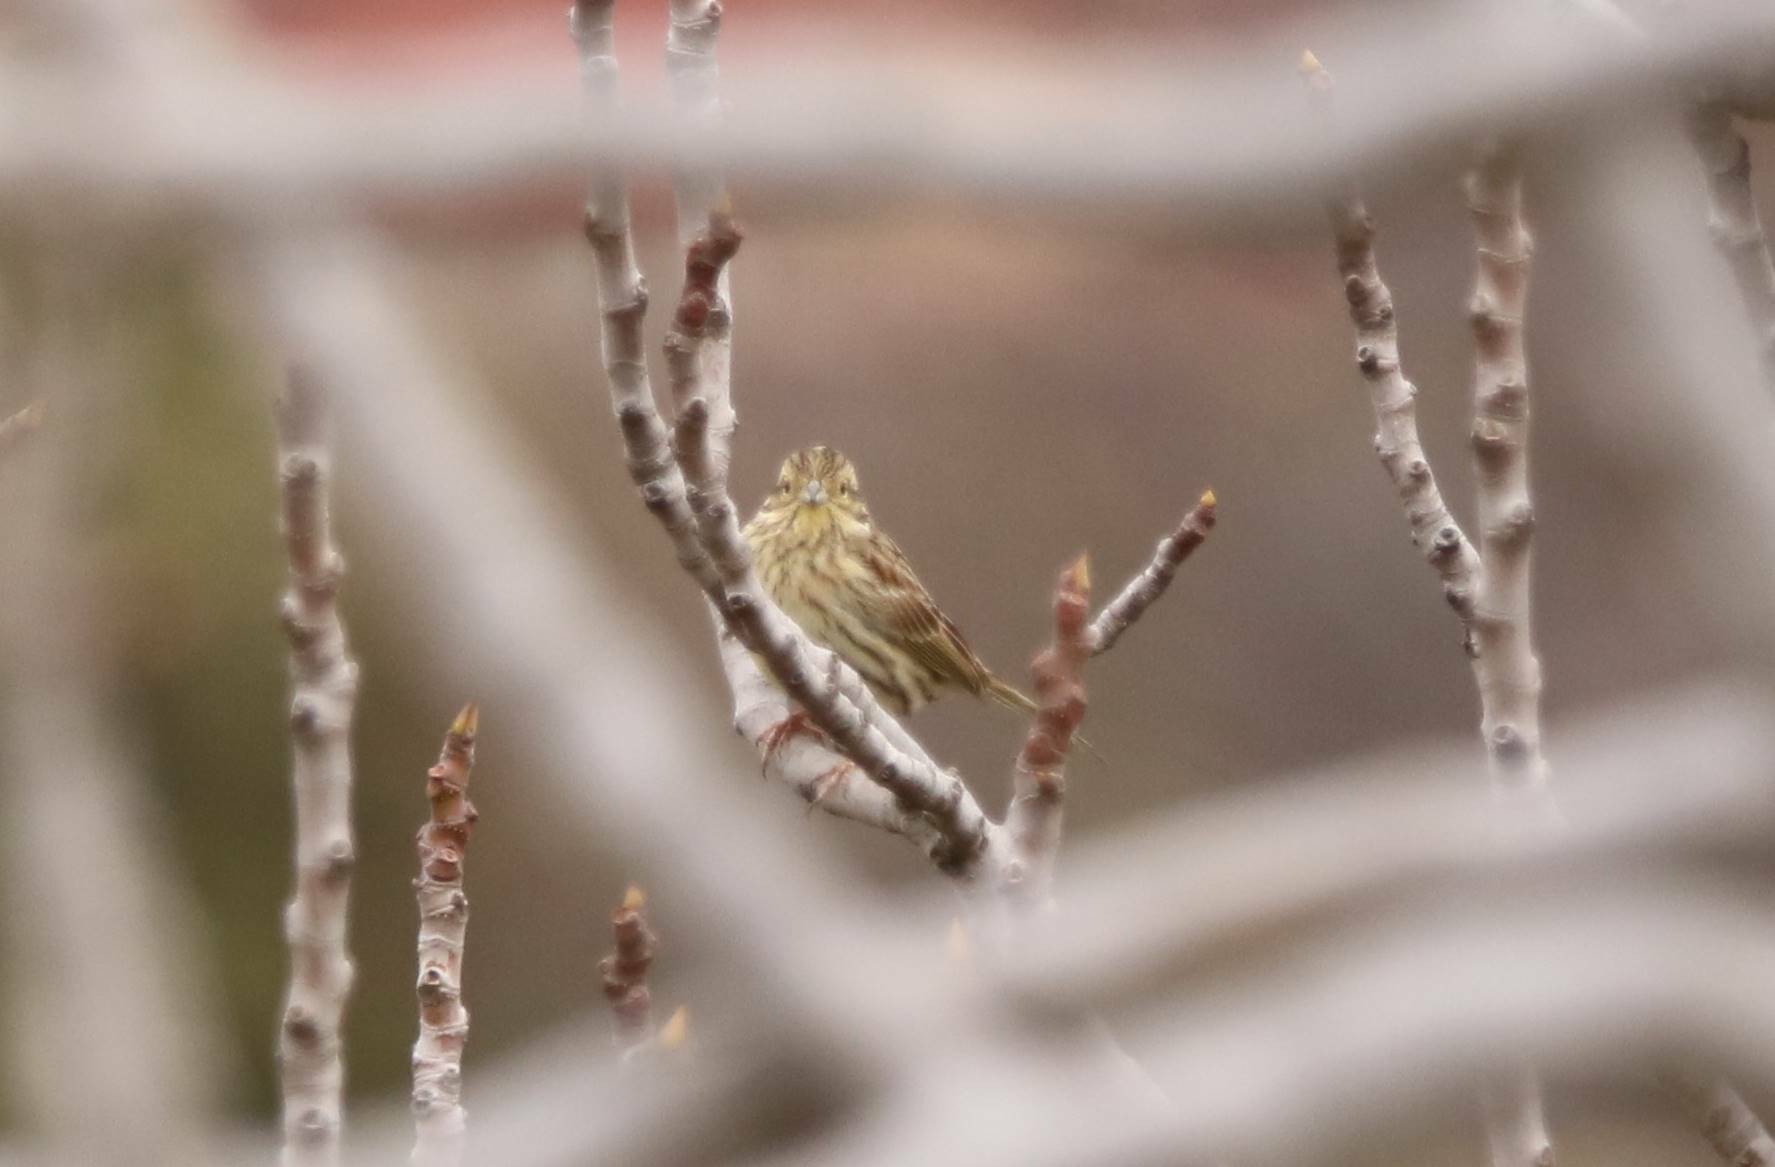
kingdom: Animalia
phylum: Chordata
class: Aves
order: Passeriformes
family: Emberizidae
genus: Emberiza
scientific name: Emberiza cirlus
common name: Cirl bunting
